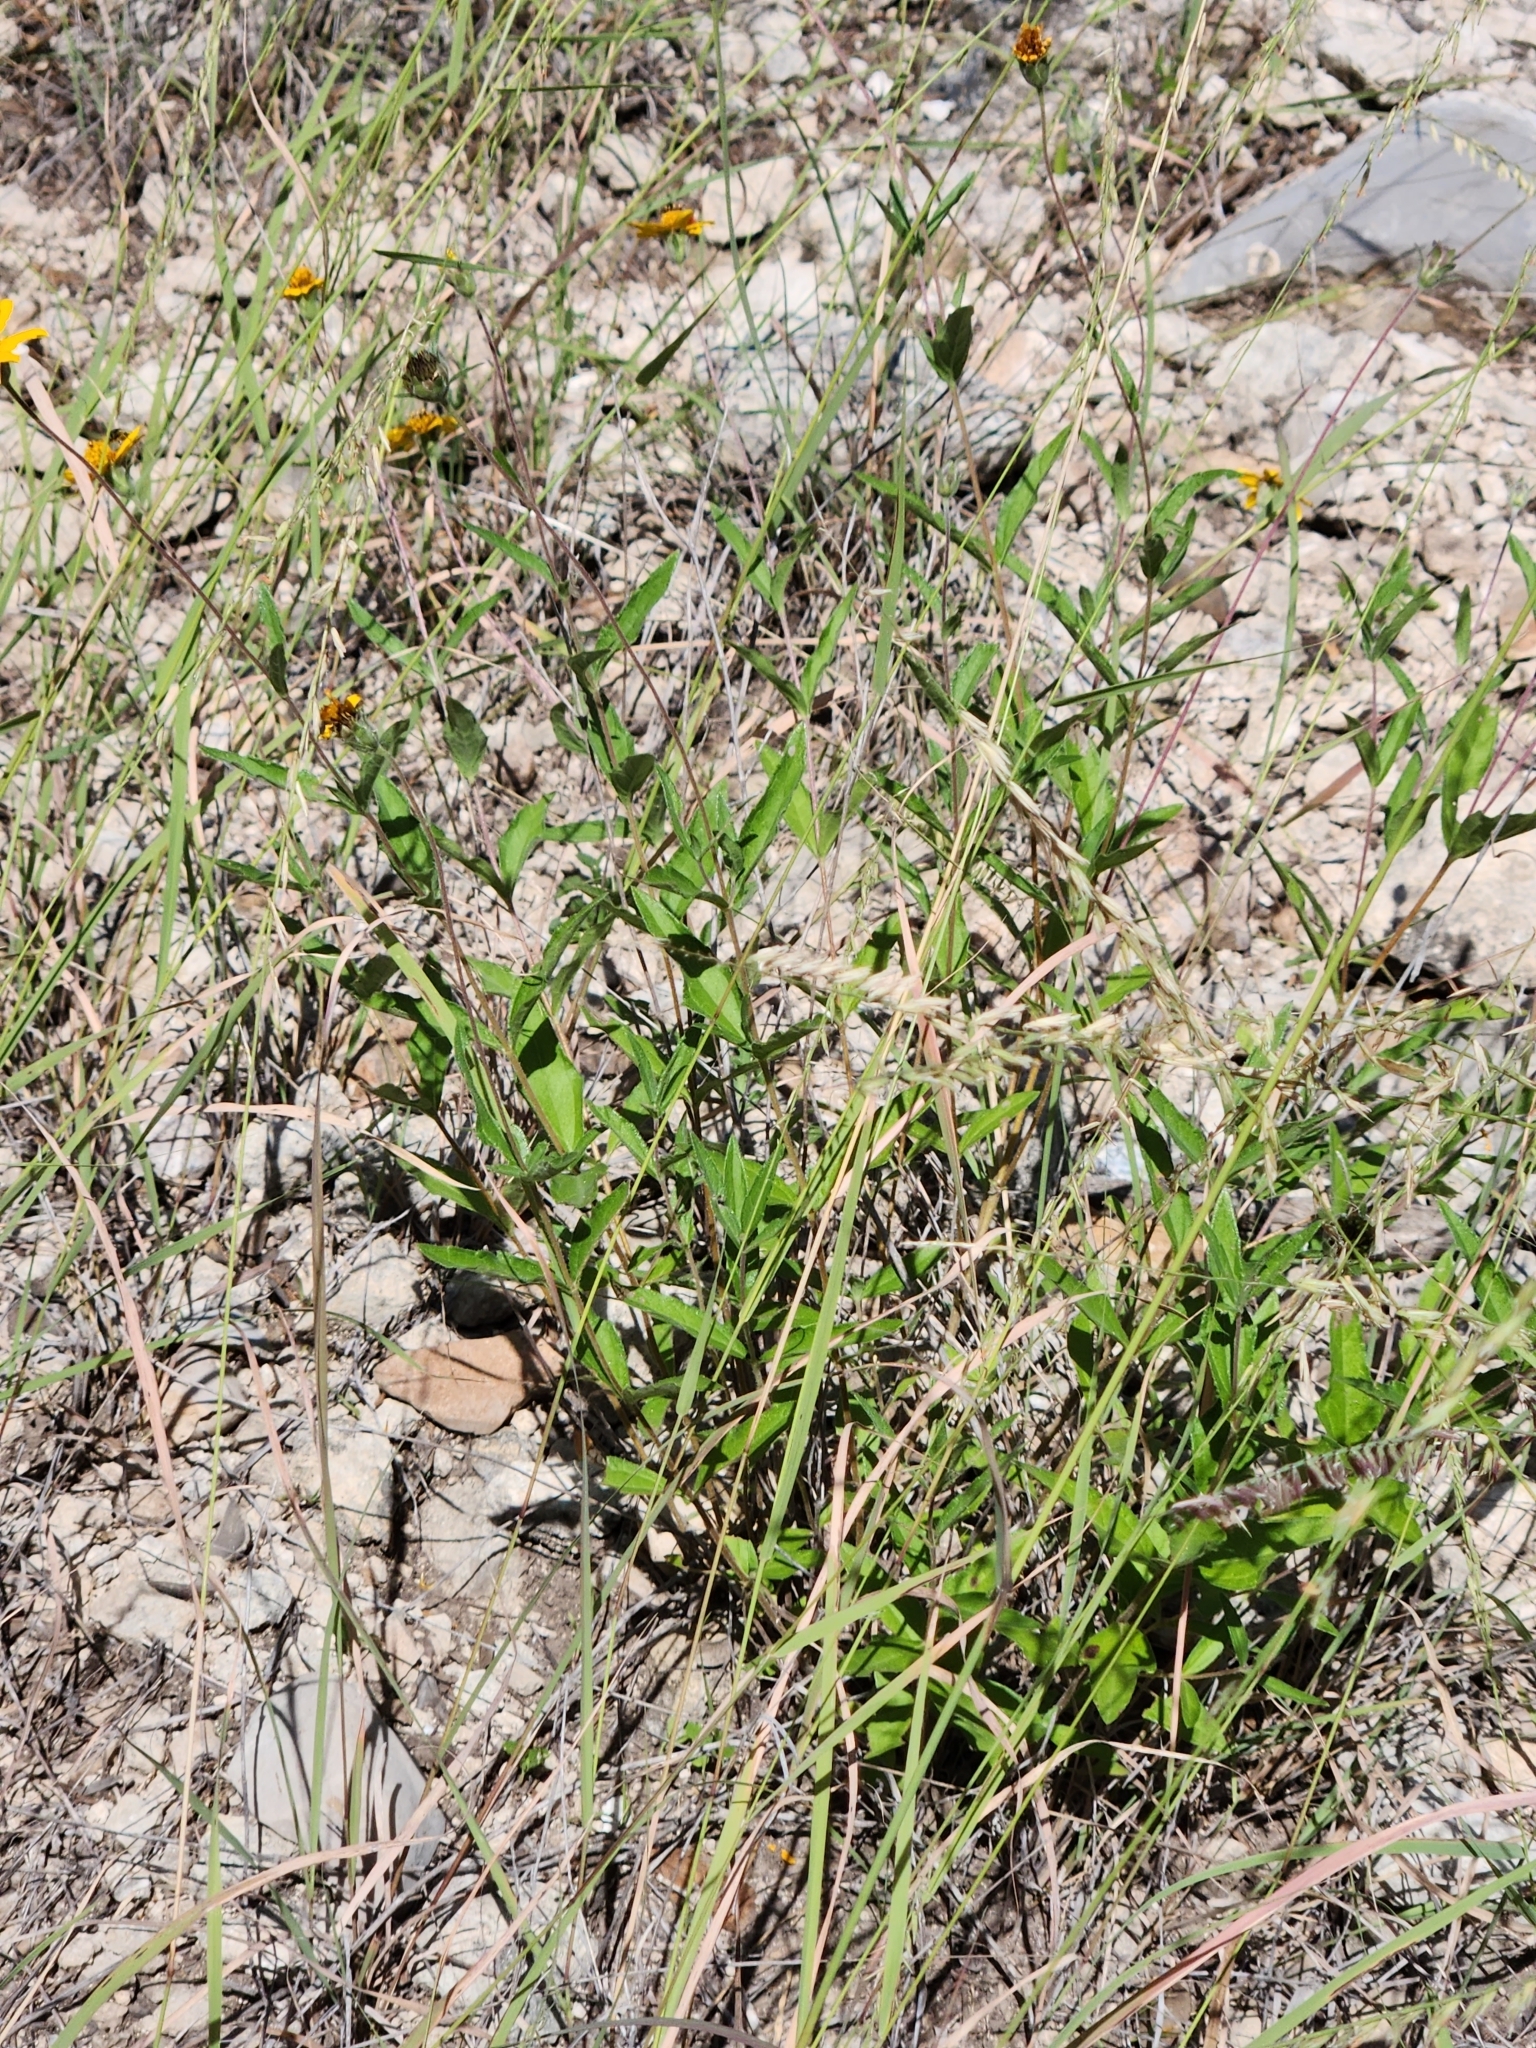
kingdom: Plantae
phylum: Tracheophyta
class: Magnoliopsida
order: Asterales
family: Asteraceae
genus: Wedelia
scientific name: Wedelia acapulcensis
